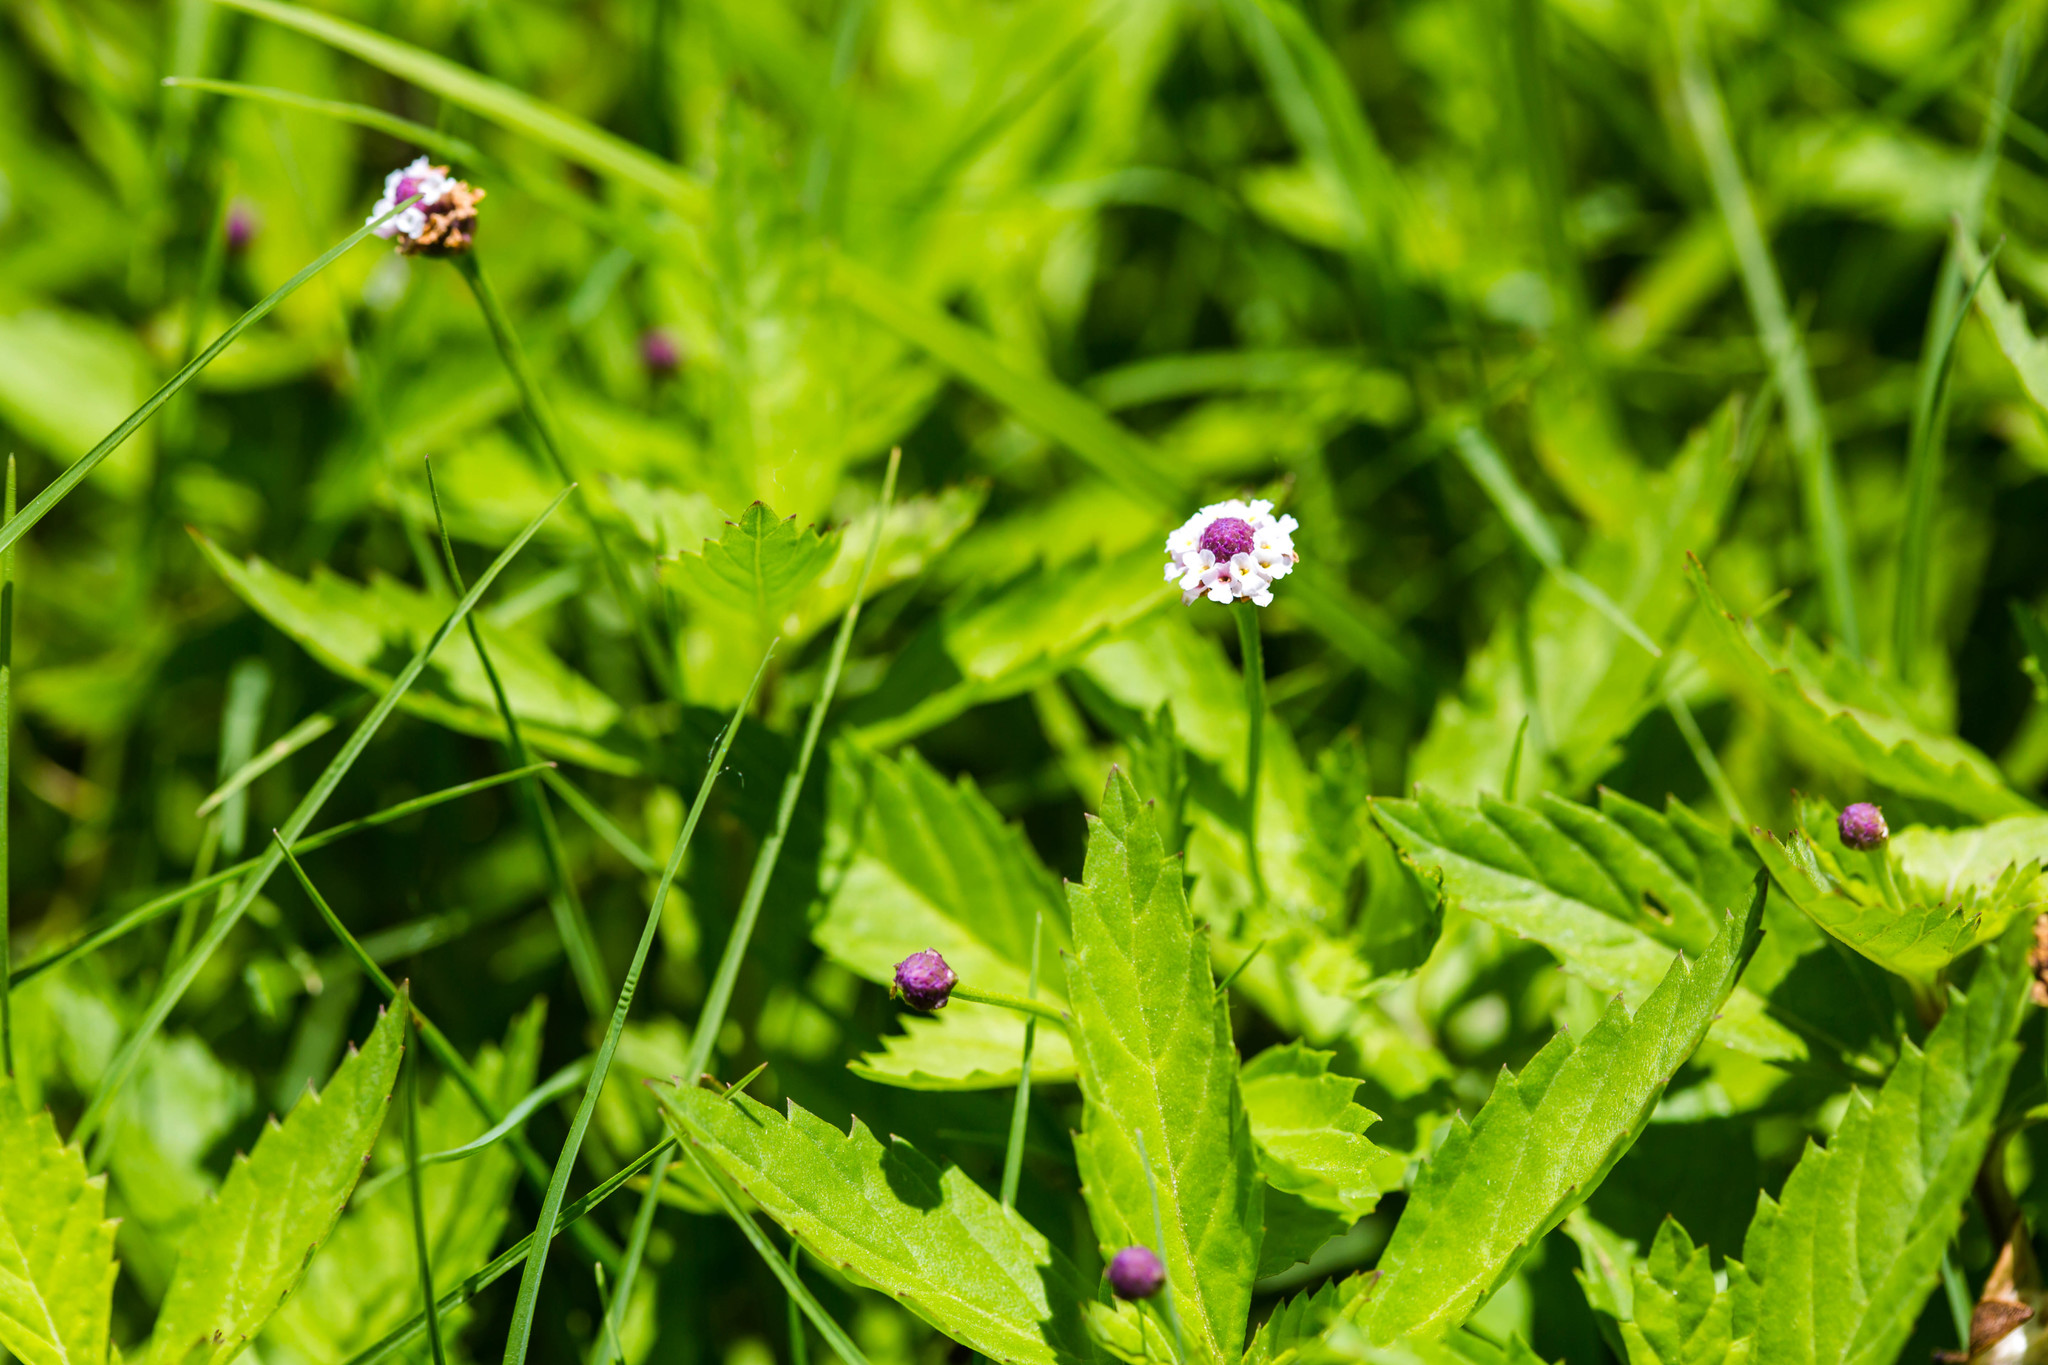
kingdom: Plantae
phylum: Tracheophyta
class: Magnoliopsida
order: Lamiales
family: Verbenaceae
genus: Phyla
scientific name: Phyla lanceolata
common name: Northern fogfruit
